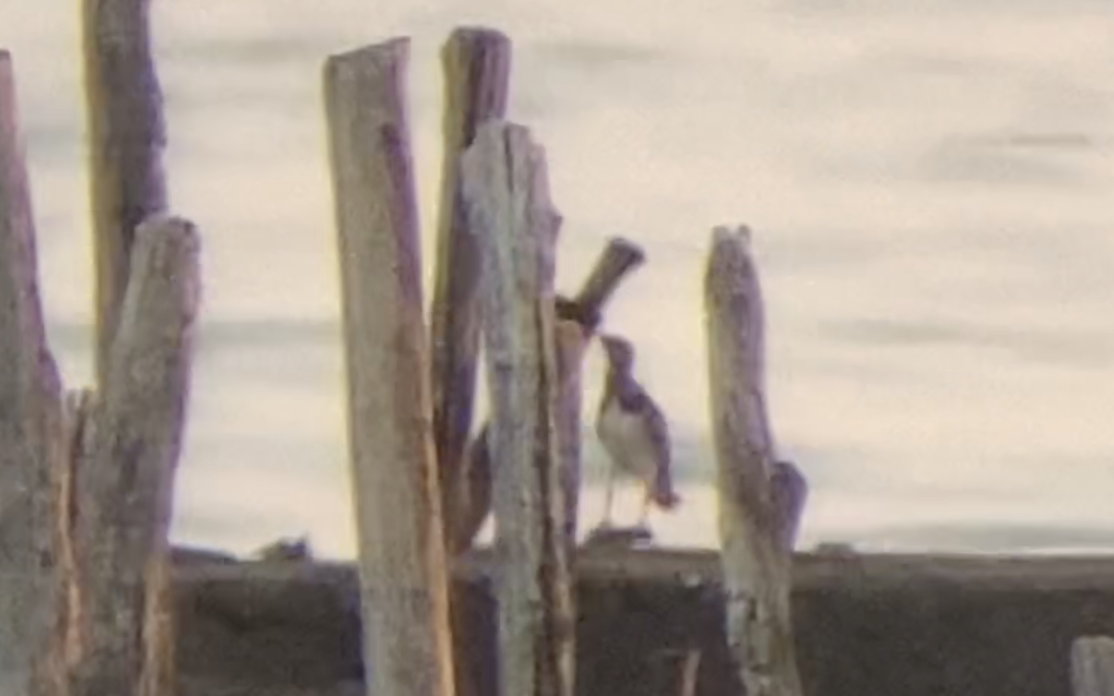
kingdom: Animalia
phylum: Chordata
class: Aves
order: Charadriiformes
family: Scolopacidae
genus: Arenaria
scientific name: Arenaria interpres
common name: Ruddy turnstone
